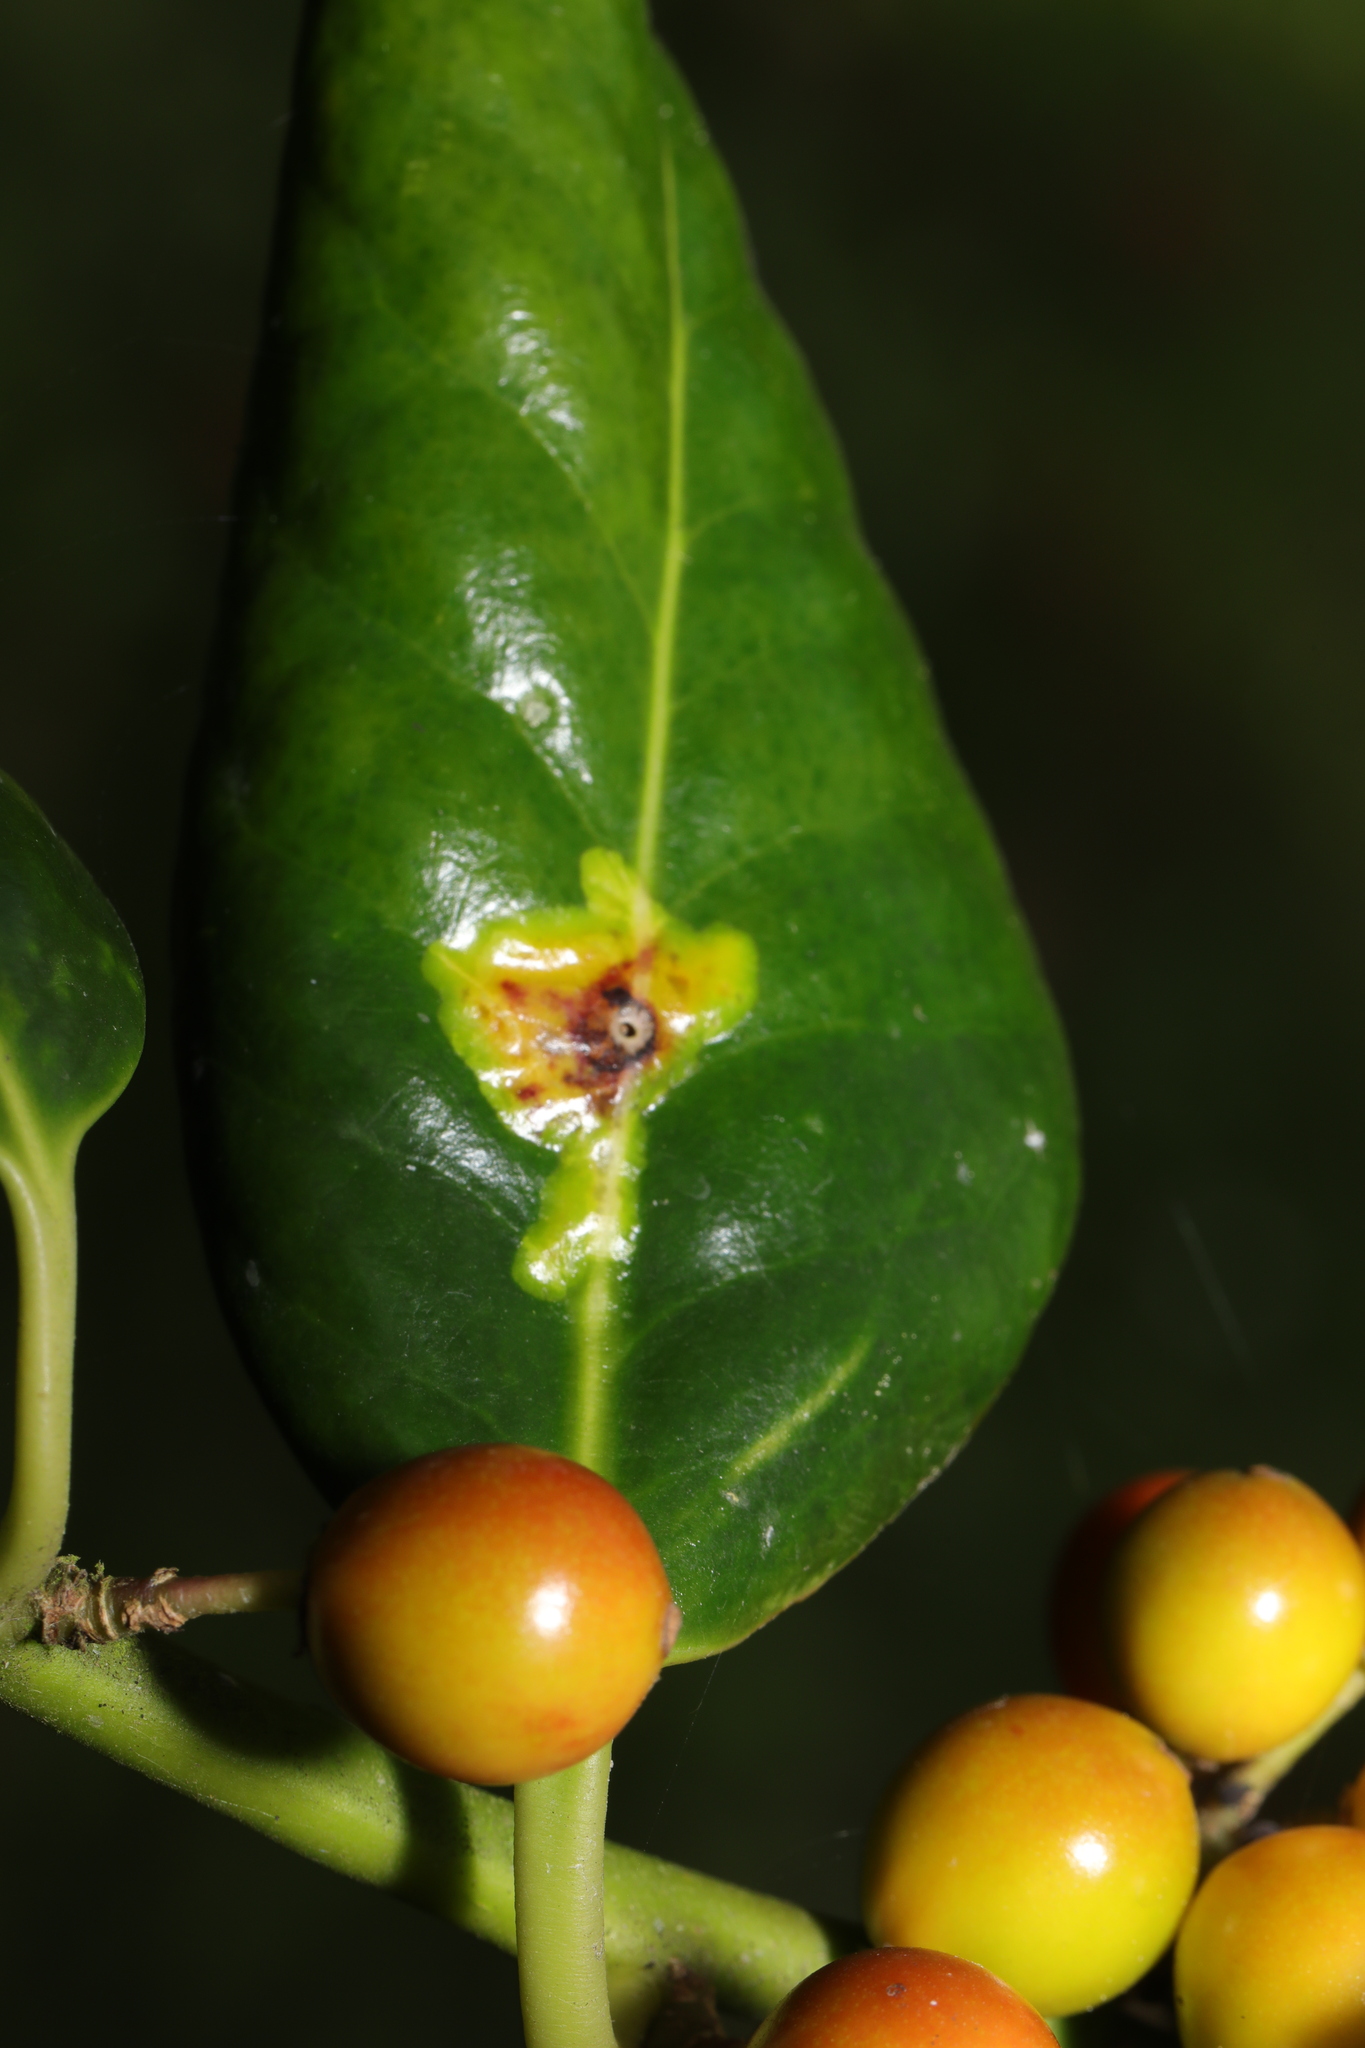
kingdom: Animalia
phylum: Arthropoda
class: Insecta
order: Diptera
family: Agromyzidae
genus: Phytomyza
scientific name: Phytomyza ilicis
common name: Holly leafminer
